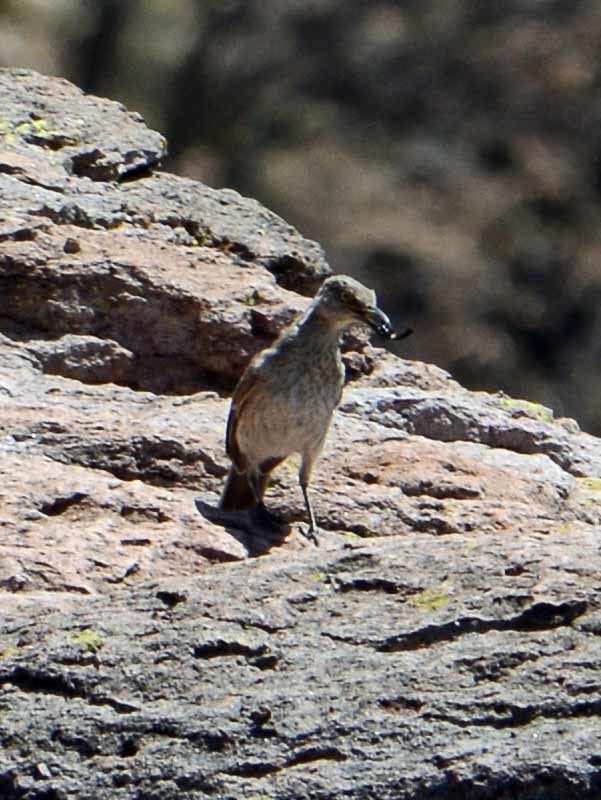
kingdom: Animalia
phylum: Chordata
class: Aves
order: Passeriformes
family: Mimidae
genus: Toxostoma
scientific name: Toxostoma curvirostre
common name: Curve-billed thrasher
